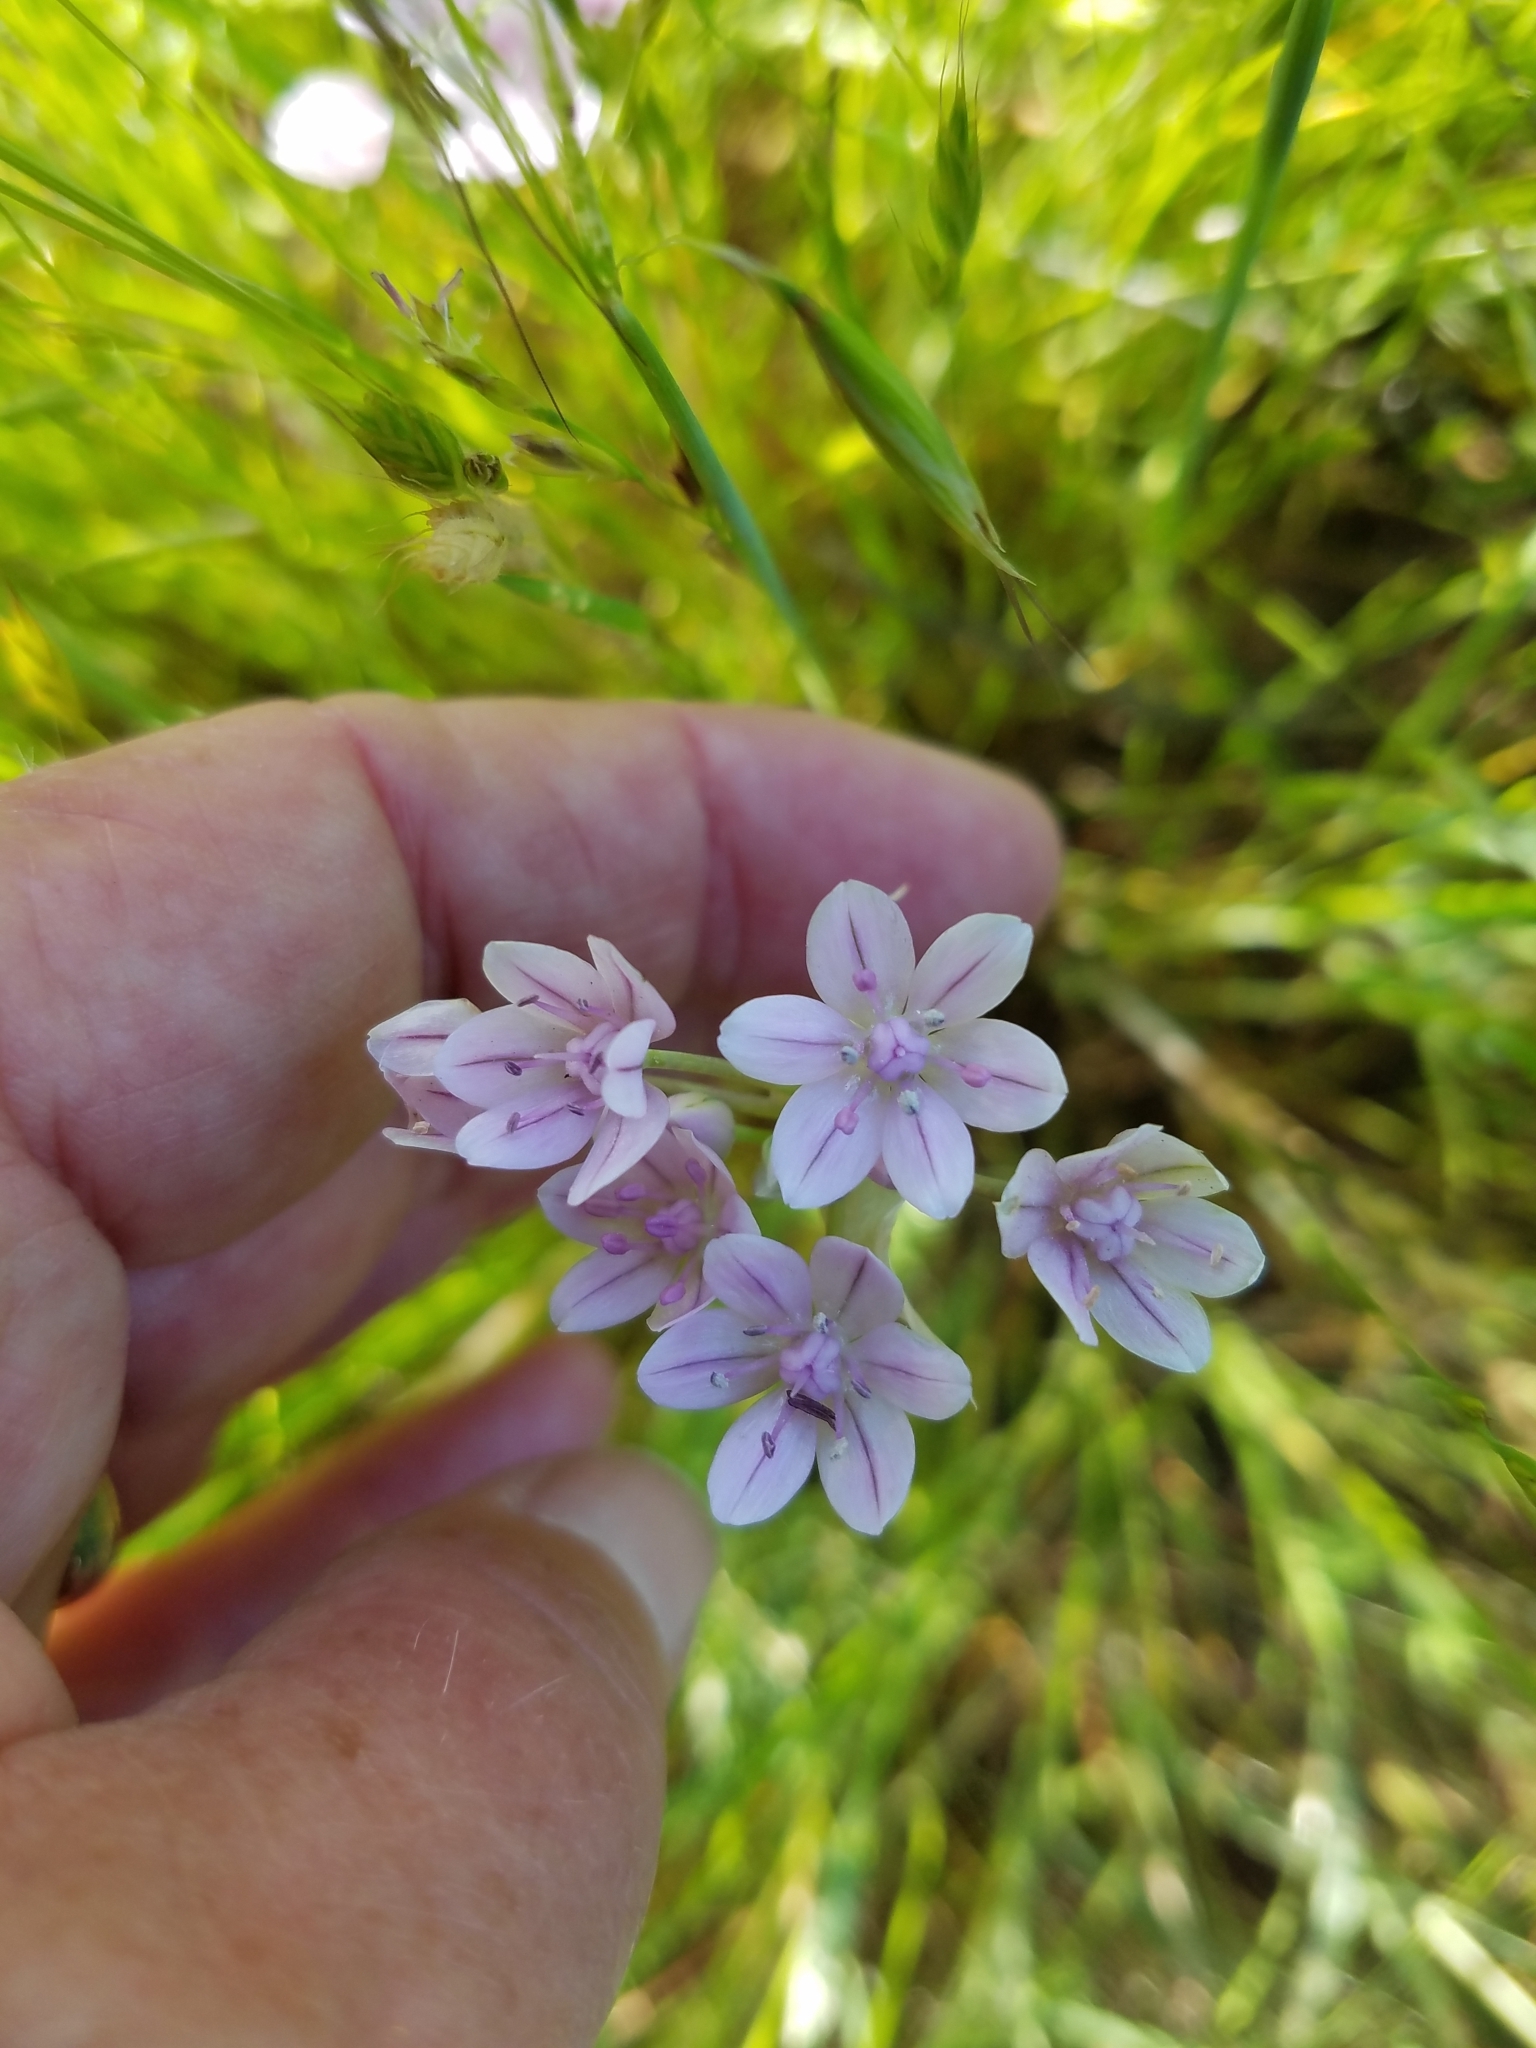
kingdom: Plantae
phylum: Tracheophyta
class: Liliopsida
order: Asparagales
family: Amaryllidaceae
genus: Allium
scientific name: Allium unifolium
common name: American garlic
